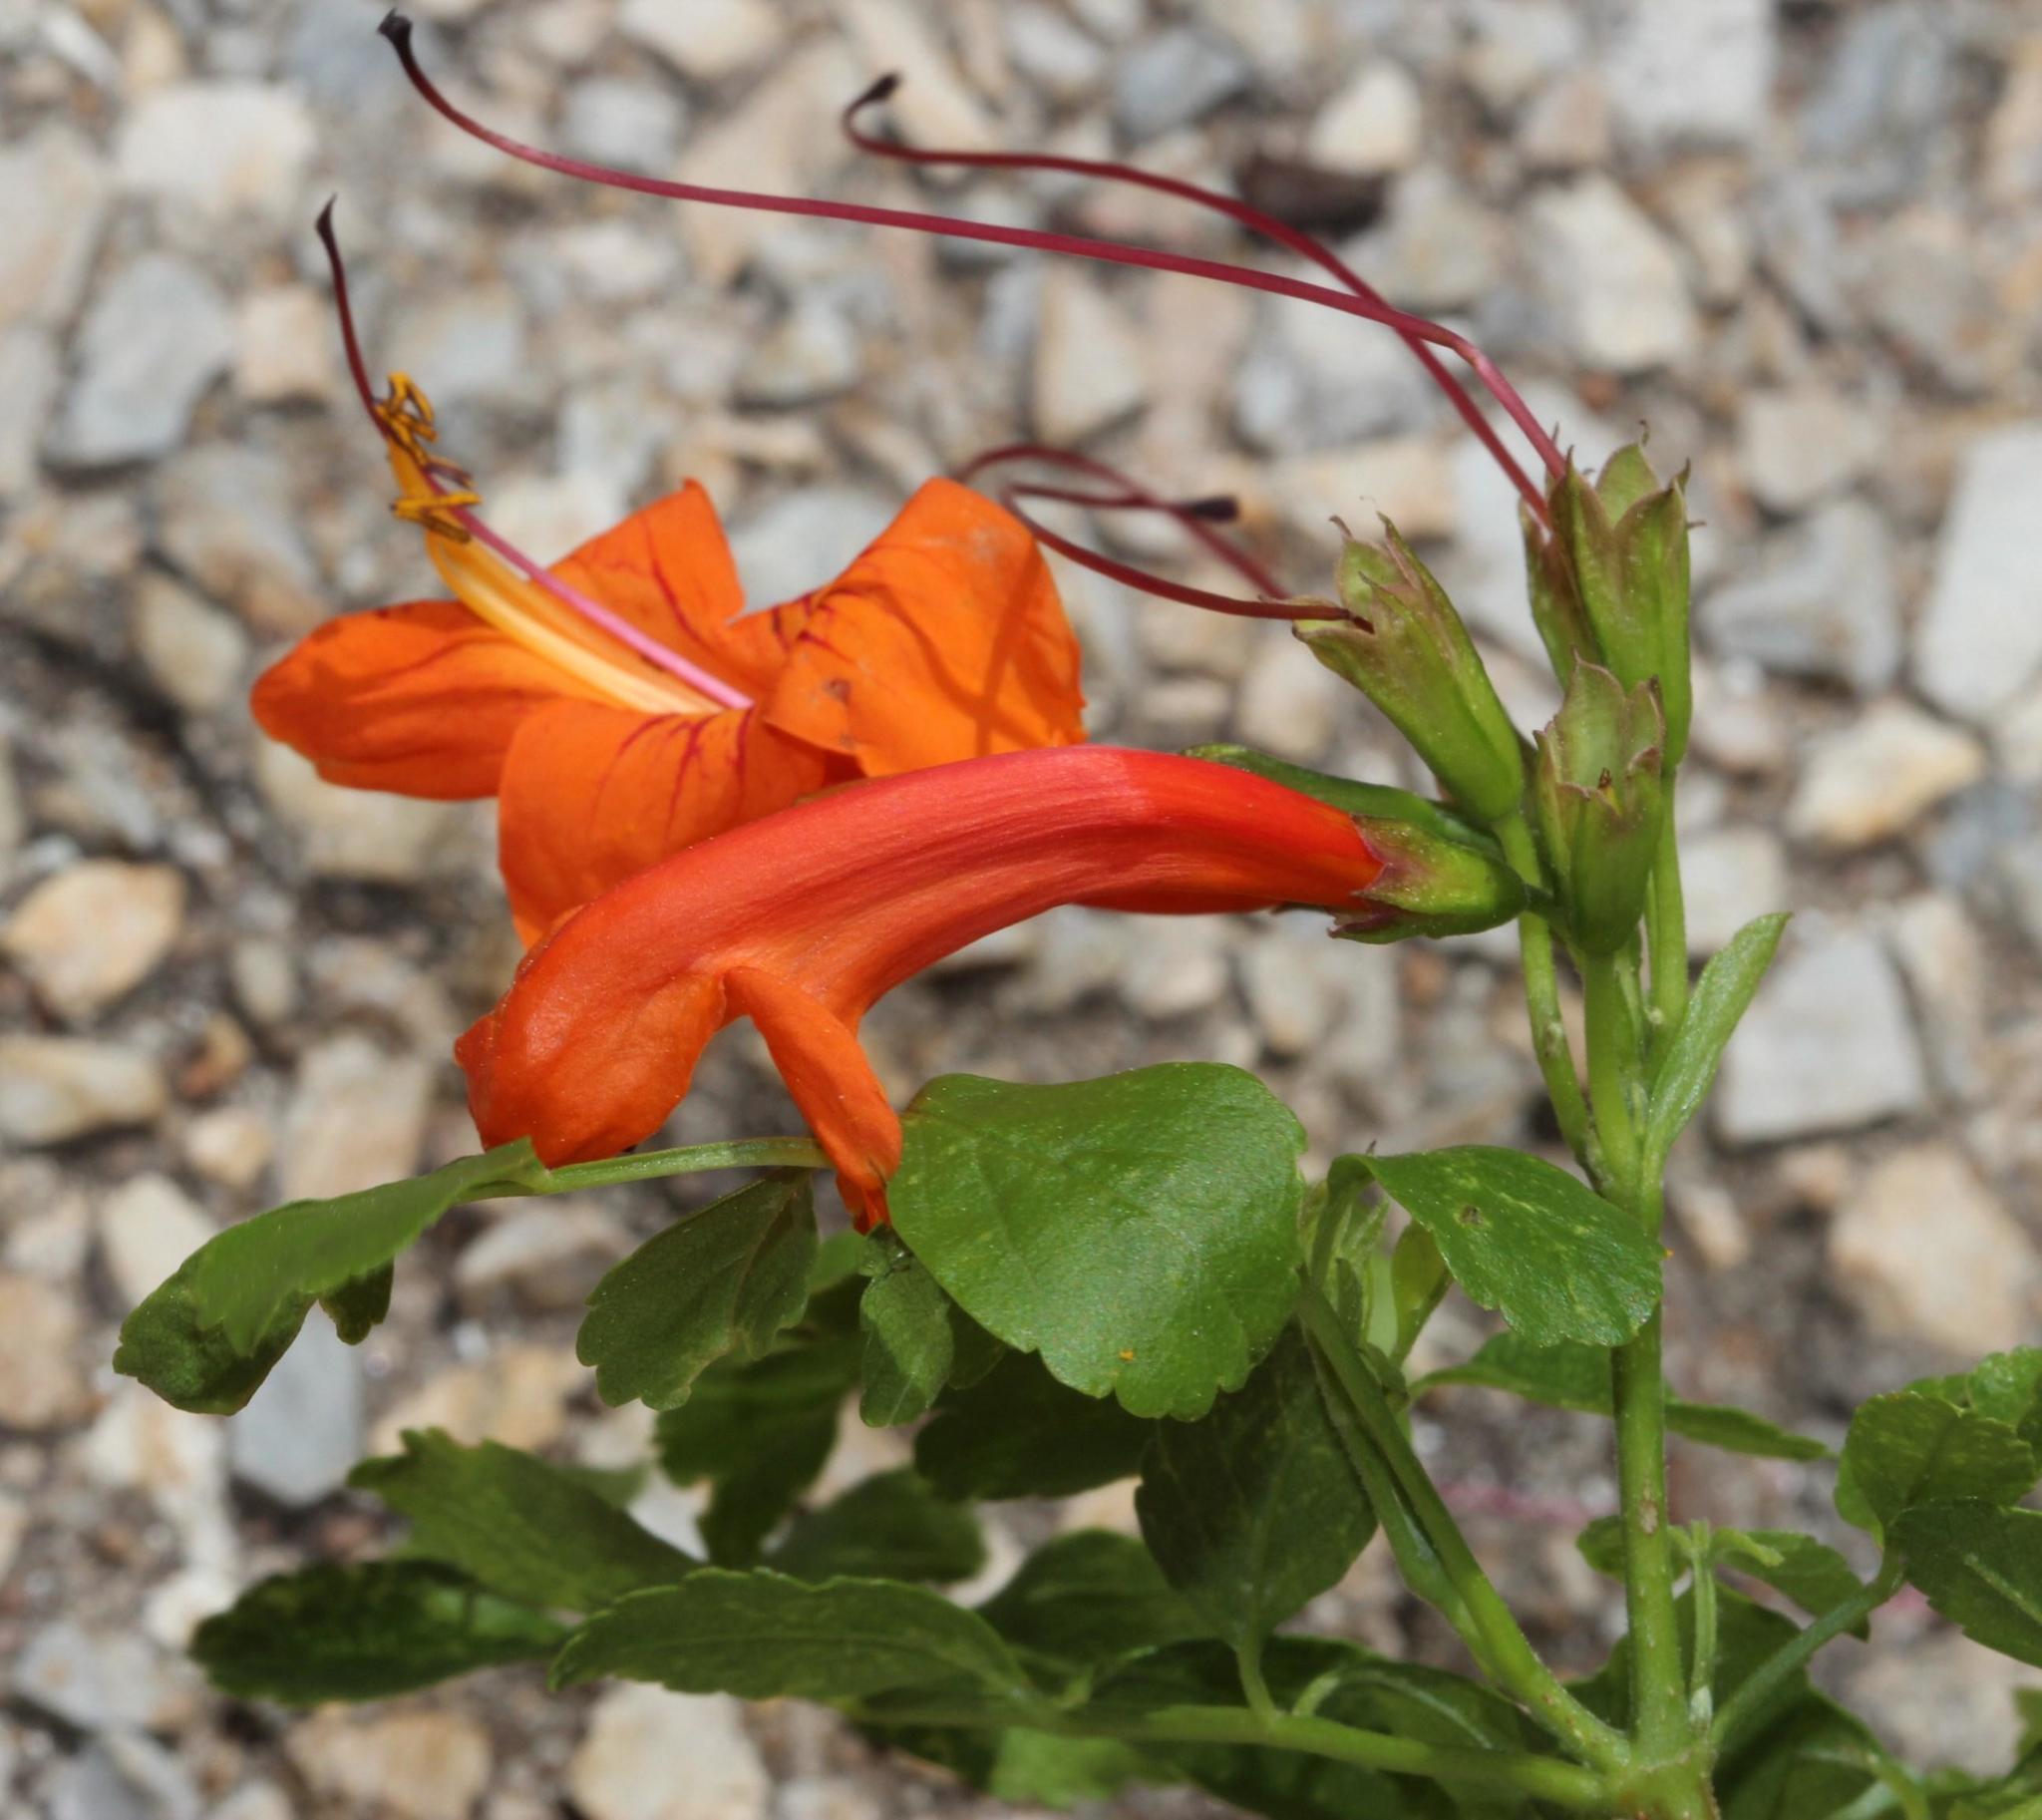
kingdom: Plantae
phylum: Tracheophyta
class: Magnoliopsida
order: Lamiales
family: Bignoniaceae
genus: Tecomaria
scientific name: Tecomaria capensis
